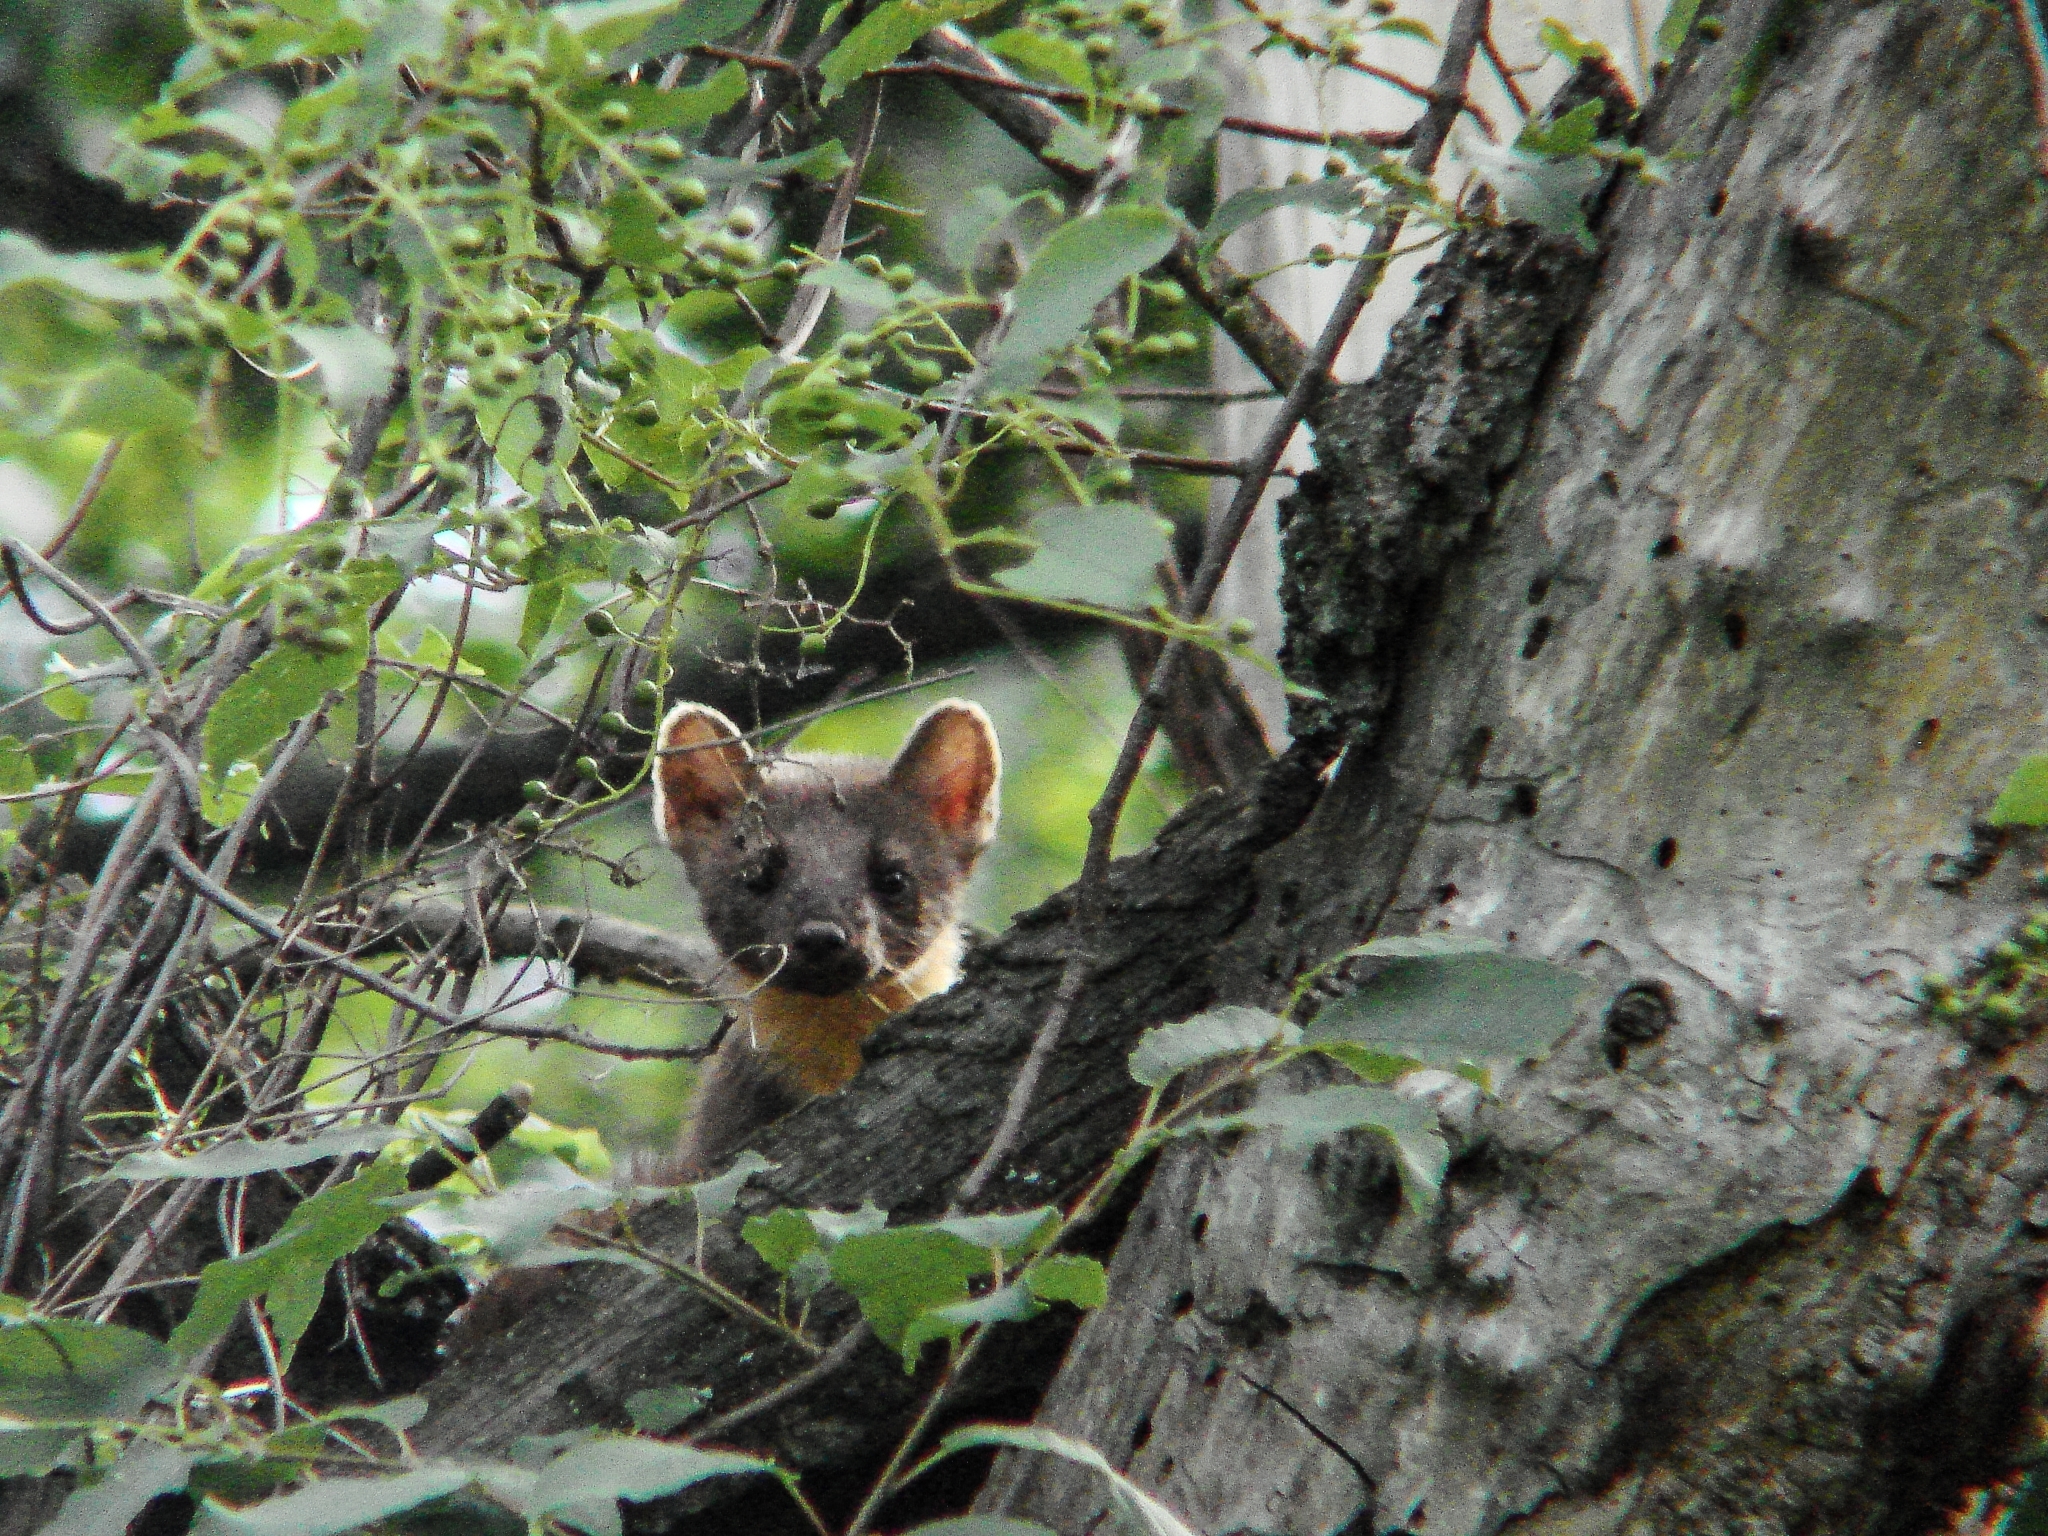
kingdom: Animalia
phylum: Chordata
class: Mammalia
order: Carnivora
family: Mustelidae
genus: Martes
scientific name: Martes martes
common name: European pine marten
